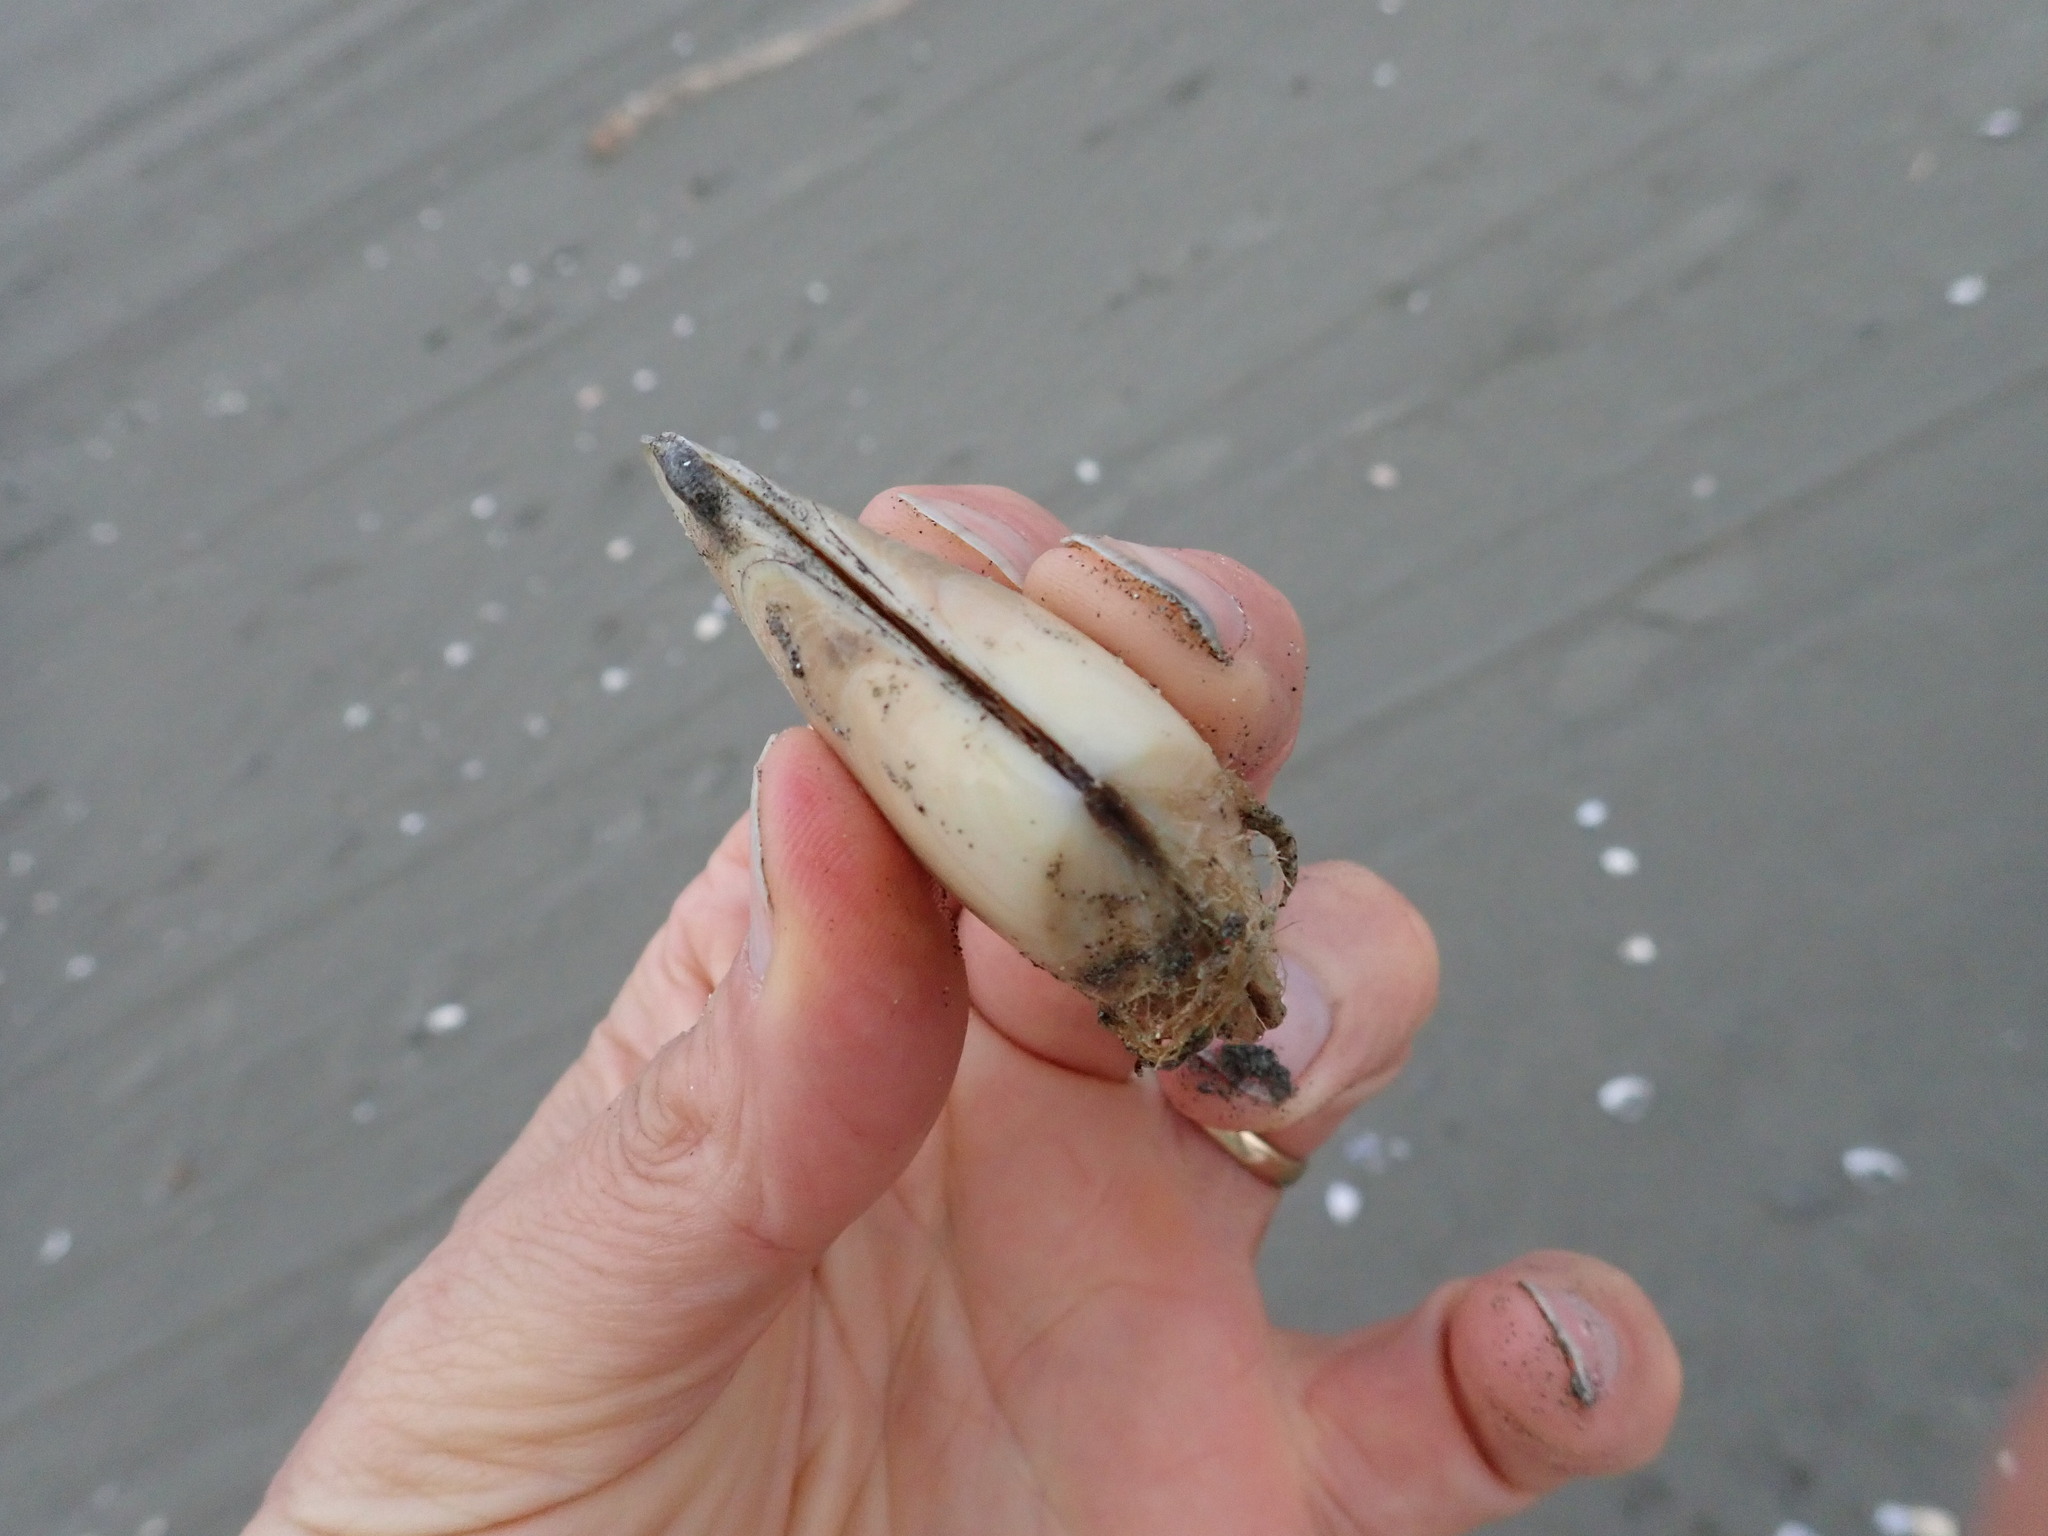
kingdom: Animalia
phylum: Mollusca
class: Bivalvia
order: Venerida
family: Mesodesmatidae
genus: Paphies
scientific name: Paphies donacina
